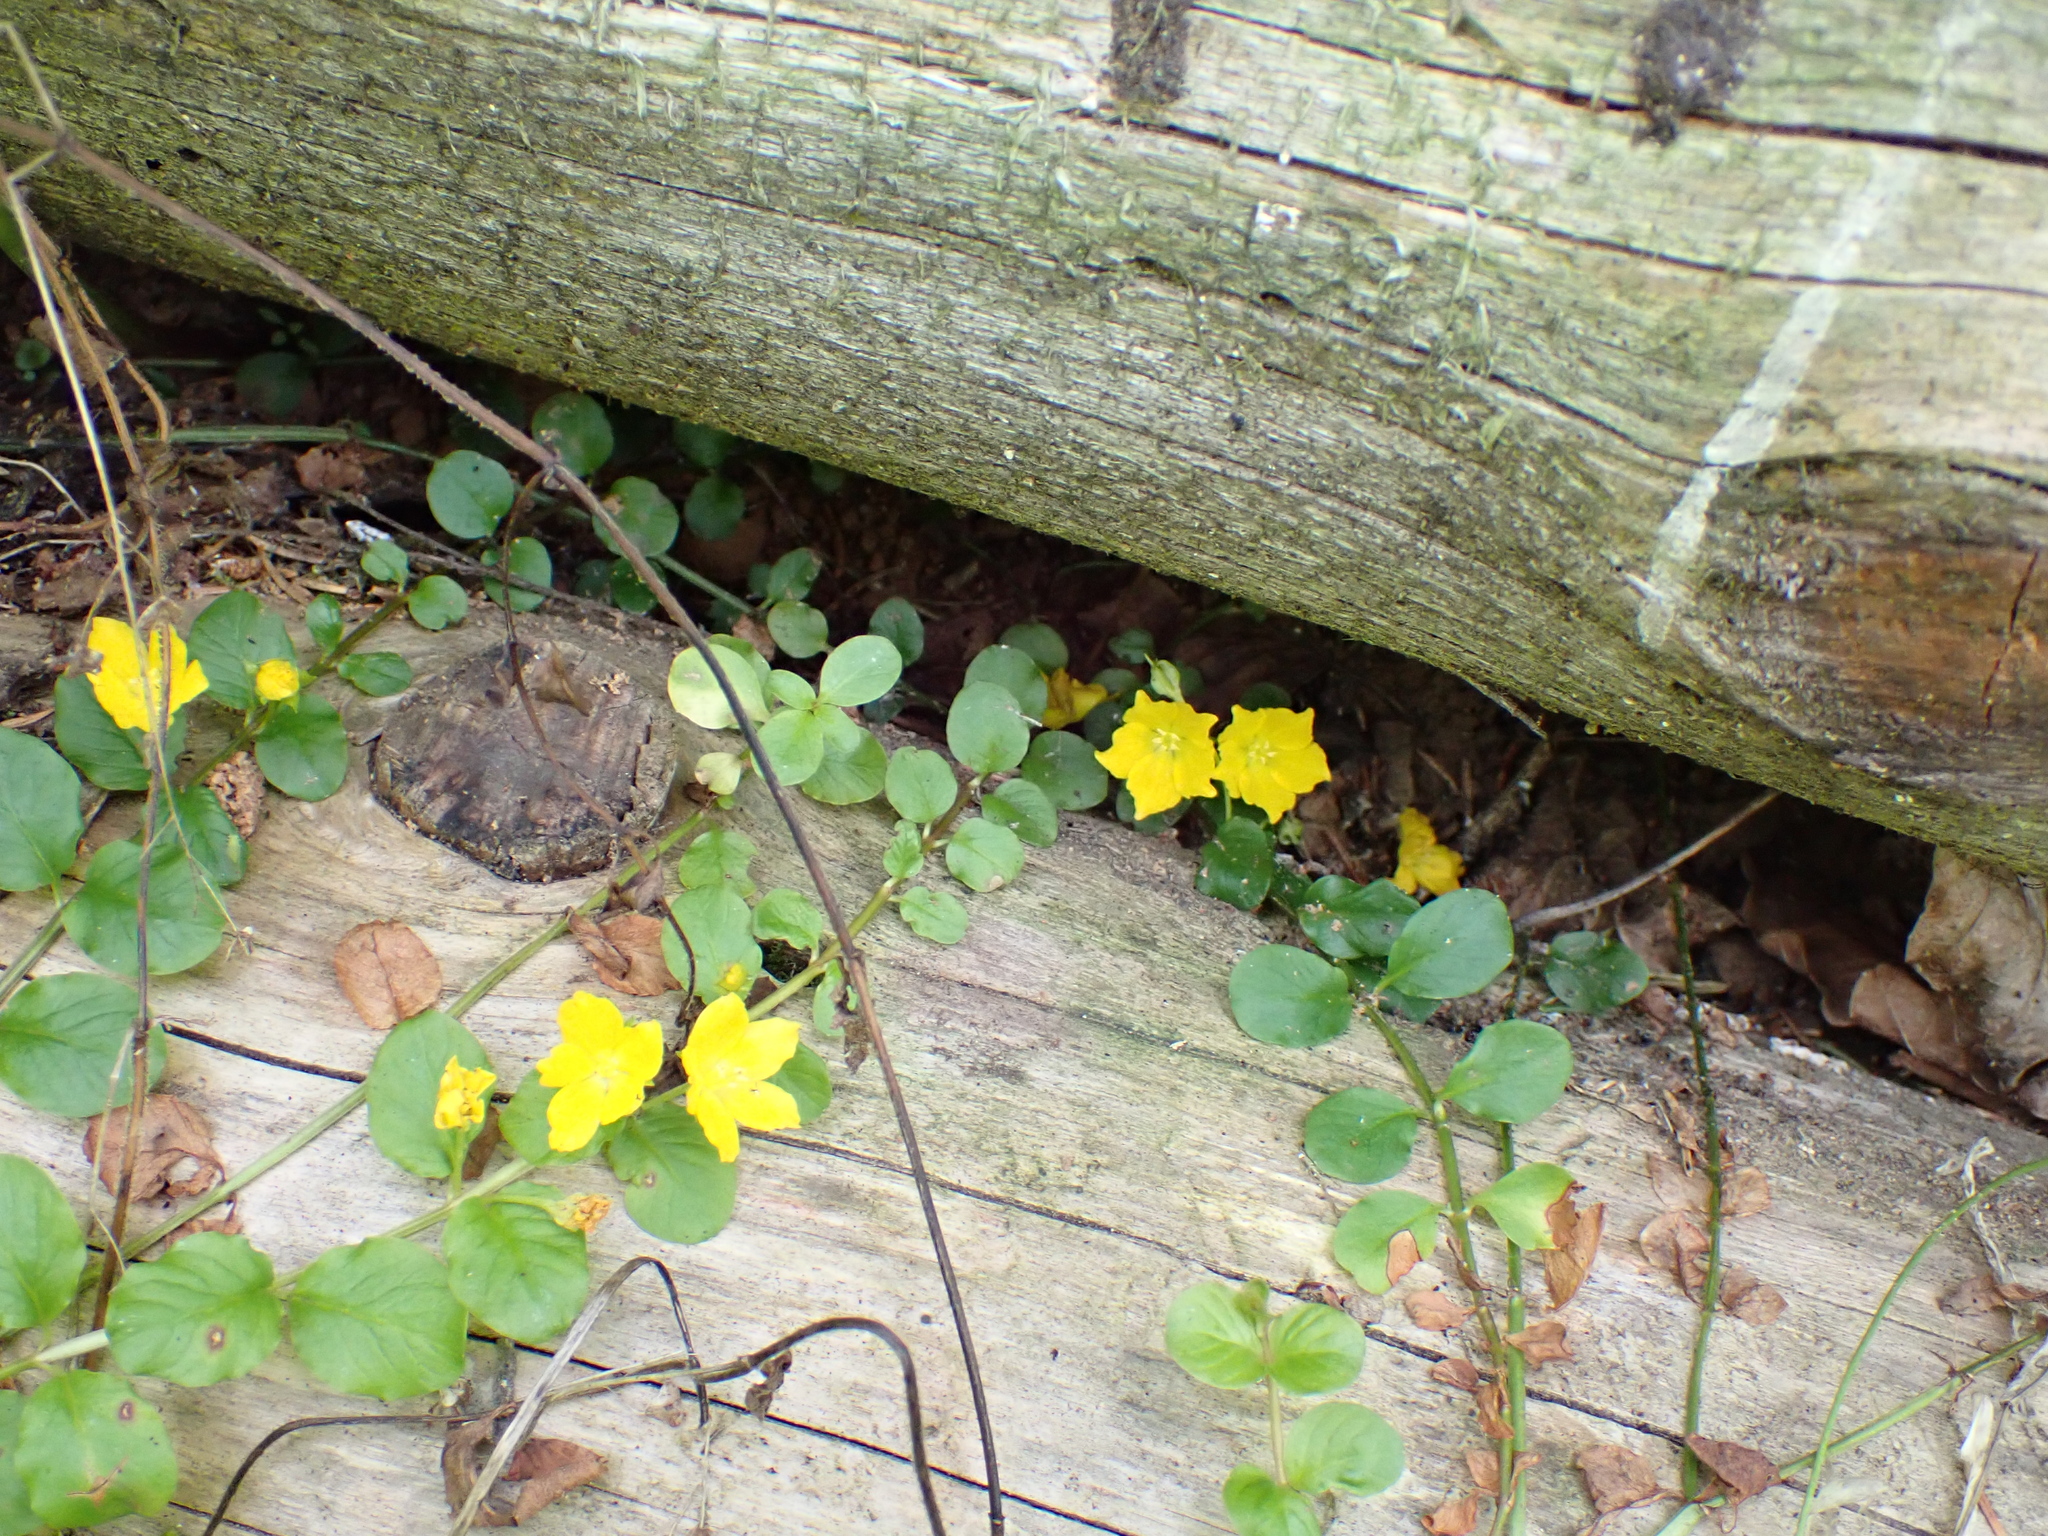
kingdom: Plantae
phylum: Tracheophyta
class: Magnoliopsida
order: Ericales
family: Primulaceae
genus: Lysimachia
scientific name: Lysimachia nummularia
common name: Moneywort
